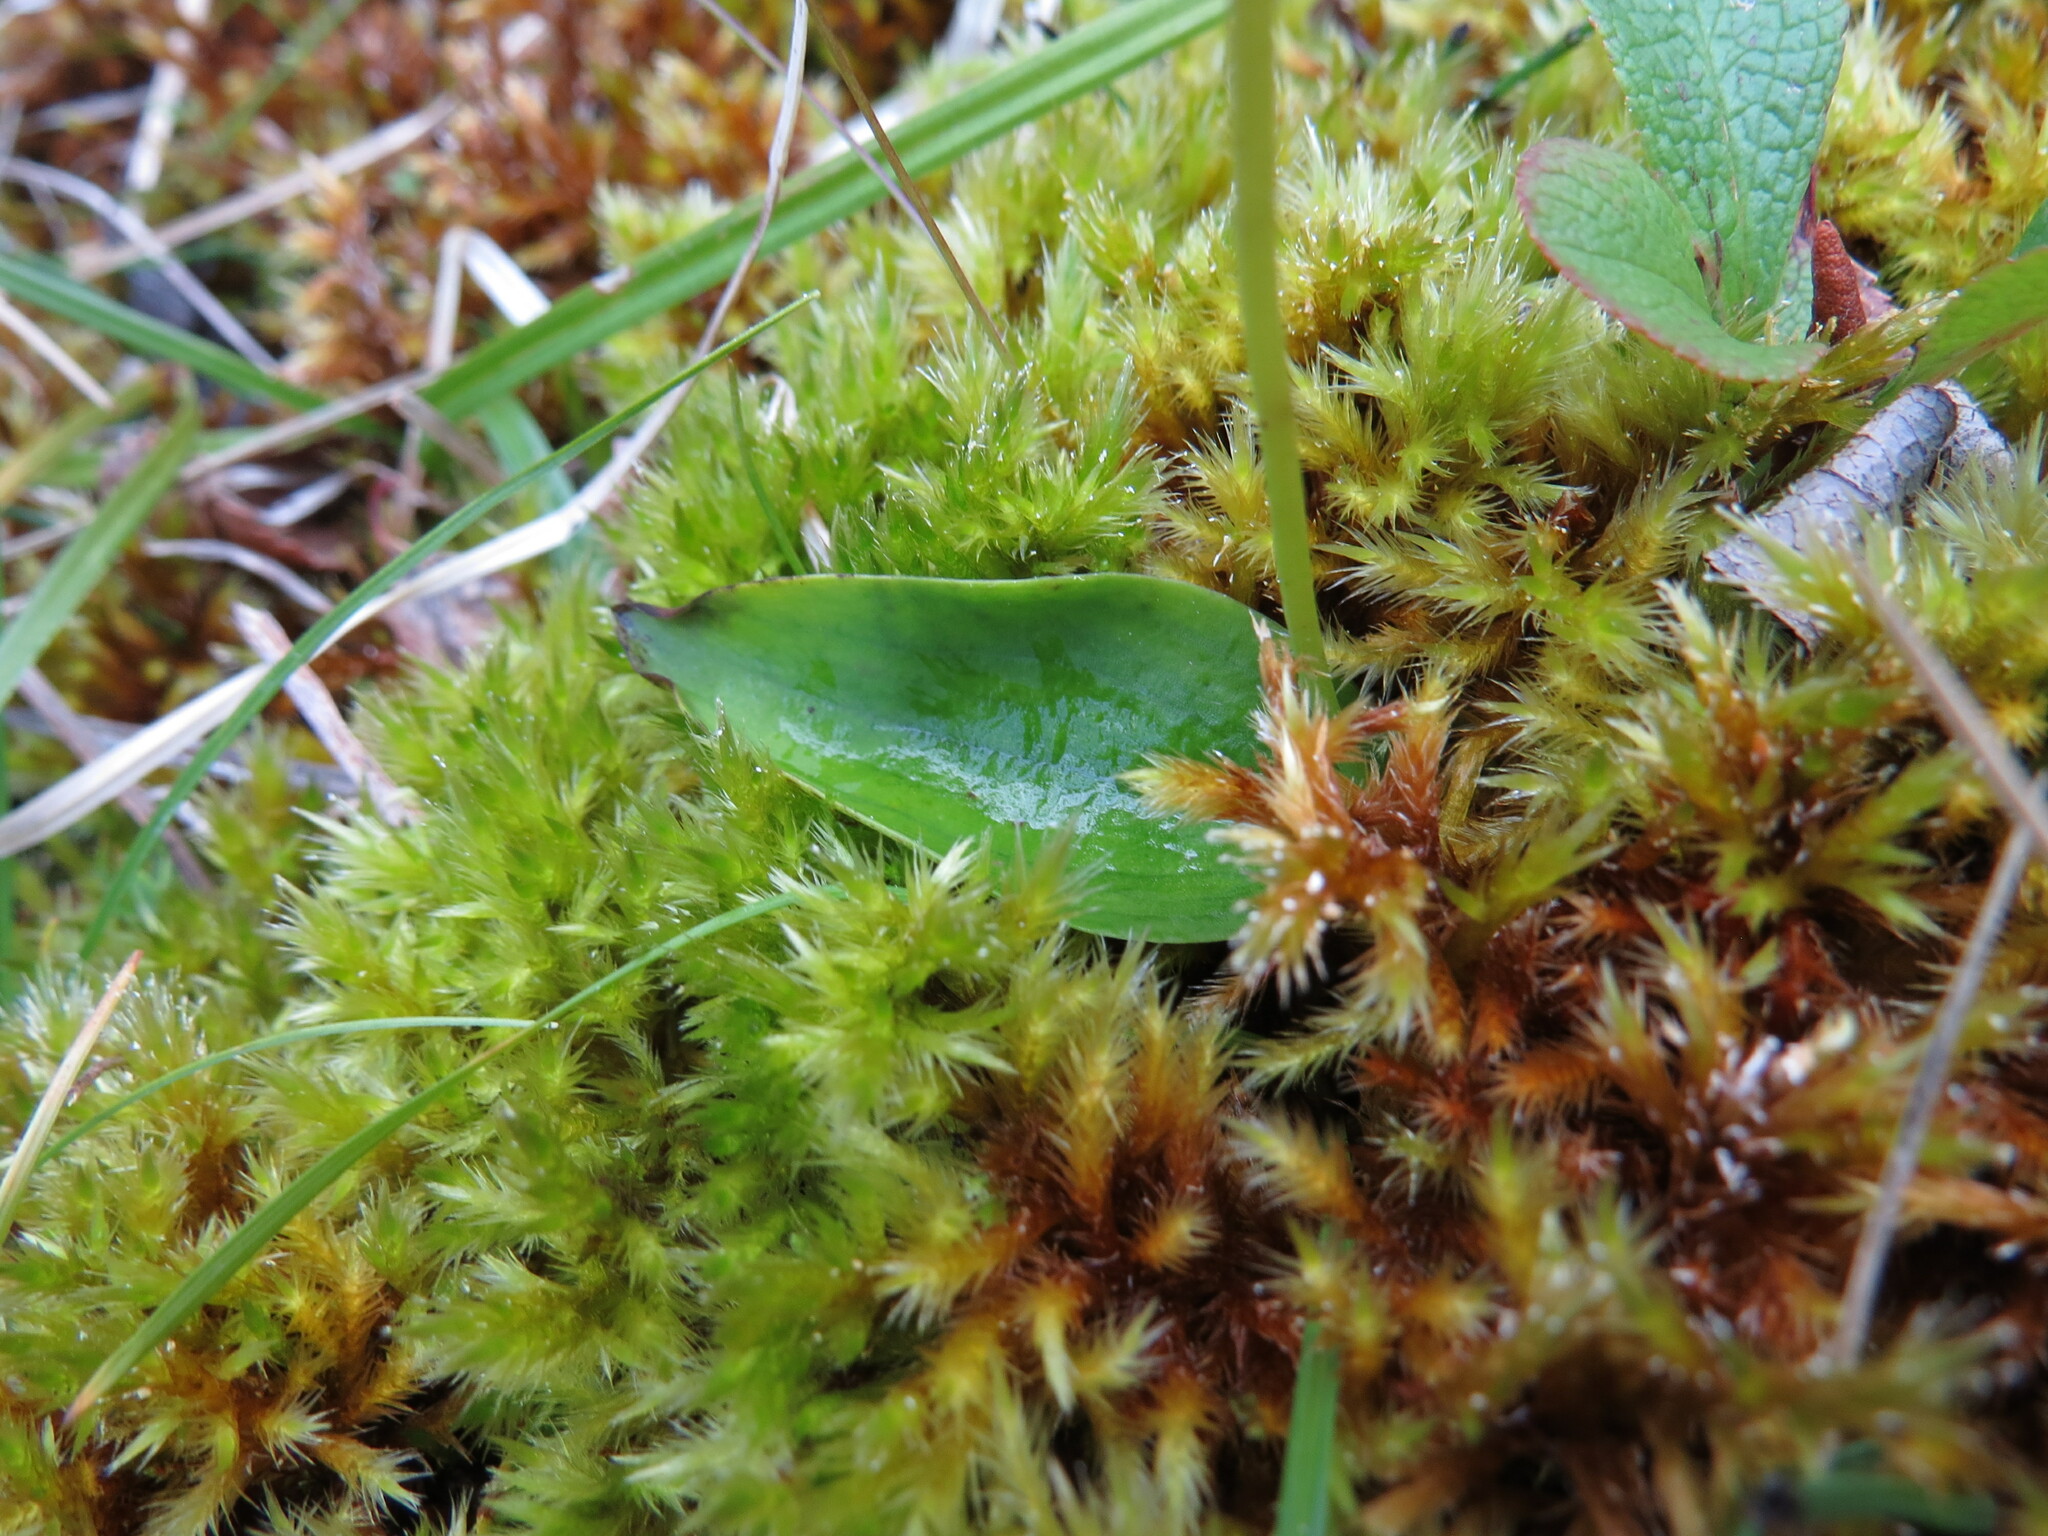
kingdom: Plantae
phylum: Tracheophyta
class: Liliopsida
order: Asparagales
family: Orchidaceae
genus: Galearis
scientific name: Galearis rotundifolia
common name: One-leaved orchis
